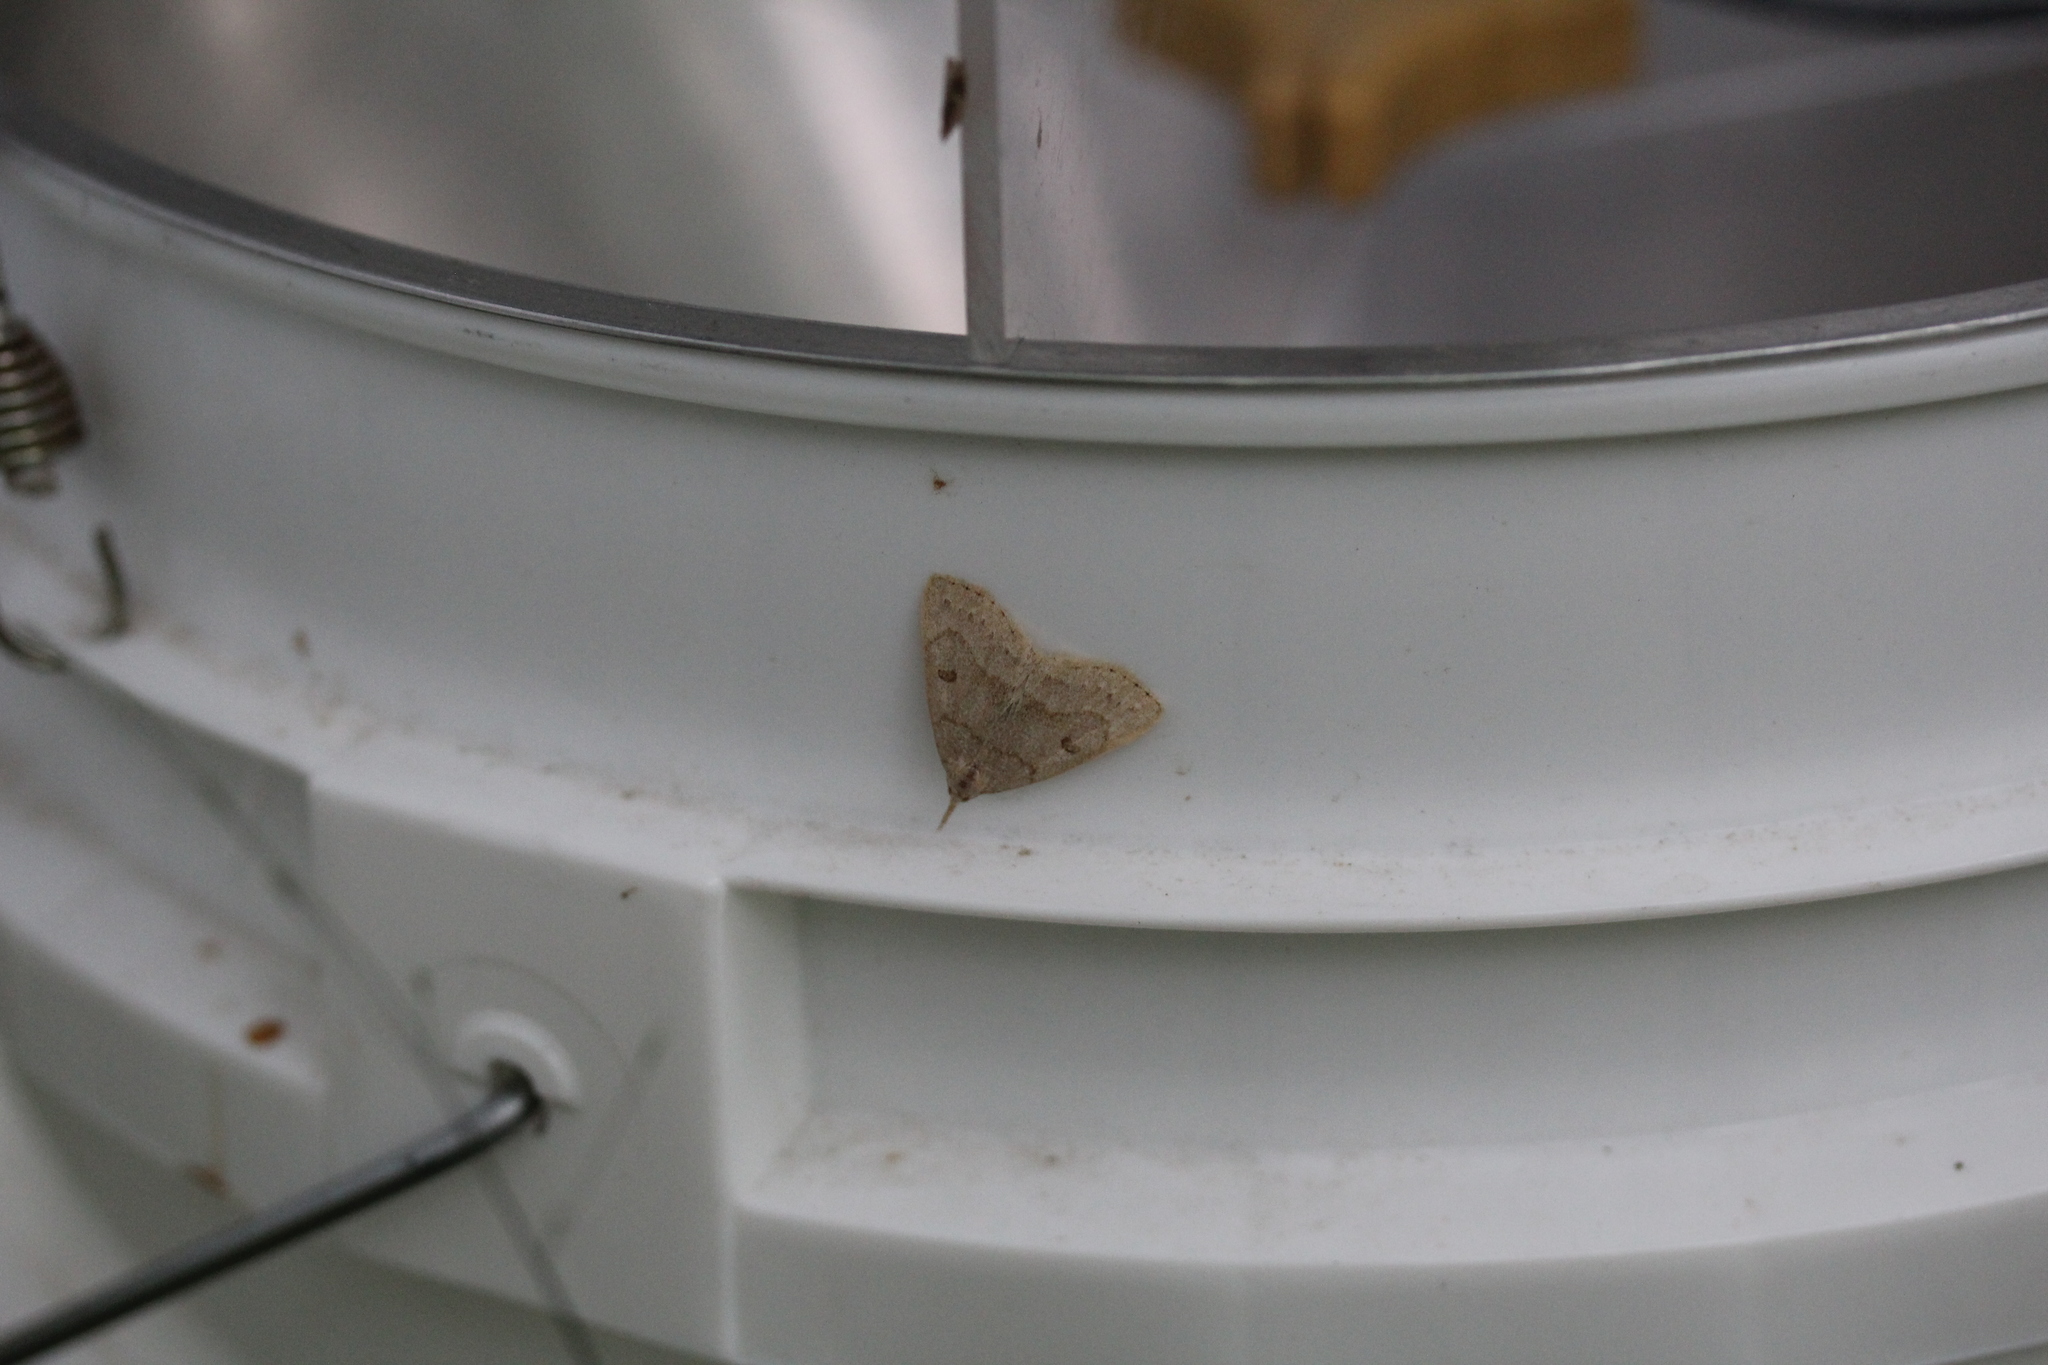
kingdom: Animalia
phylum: Arthropoda
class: Insecta
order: Lepidoptera
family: Erebidae
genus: Macrochilo
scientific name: Macrochilo morbidalis
